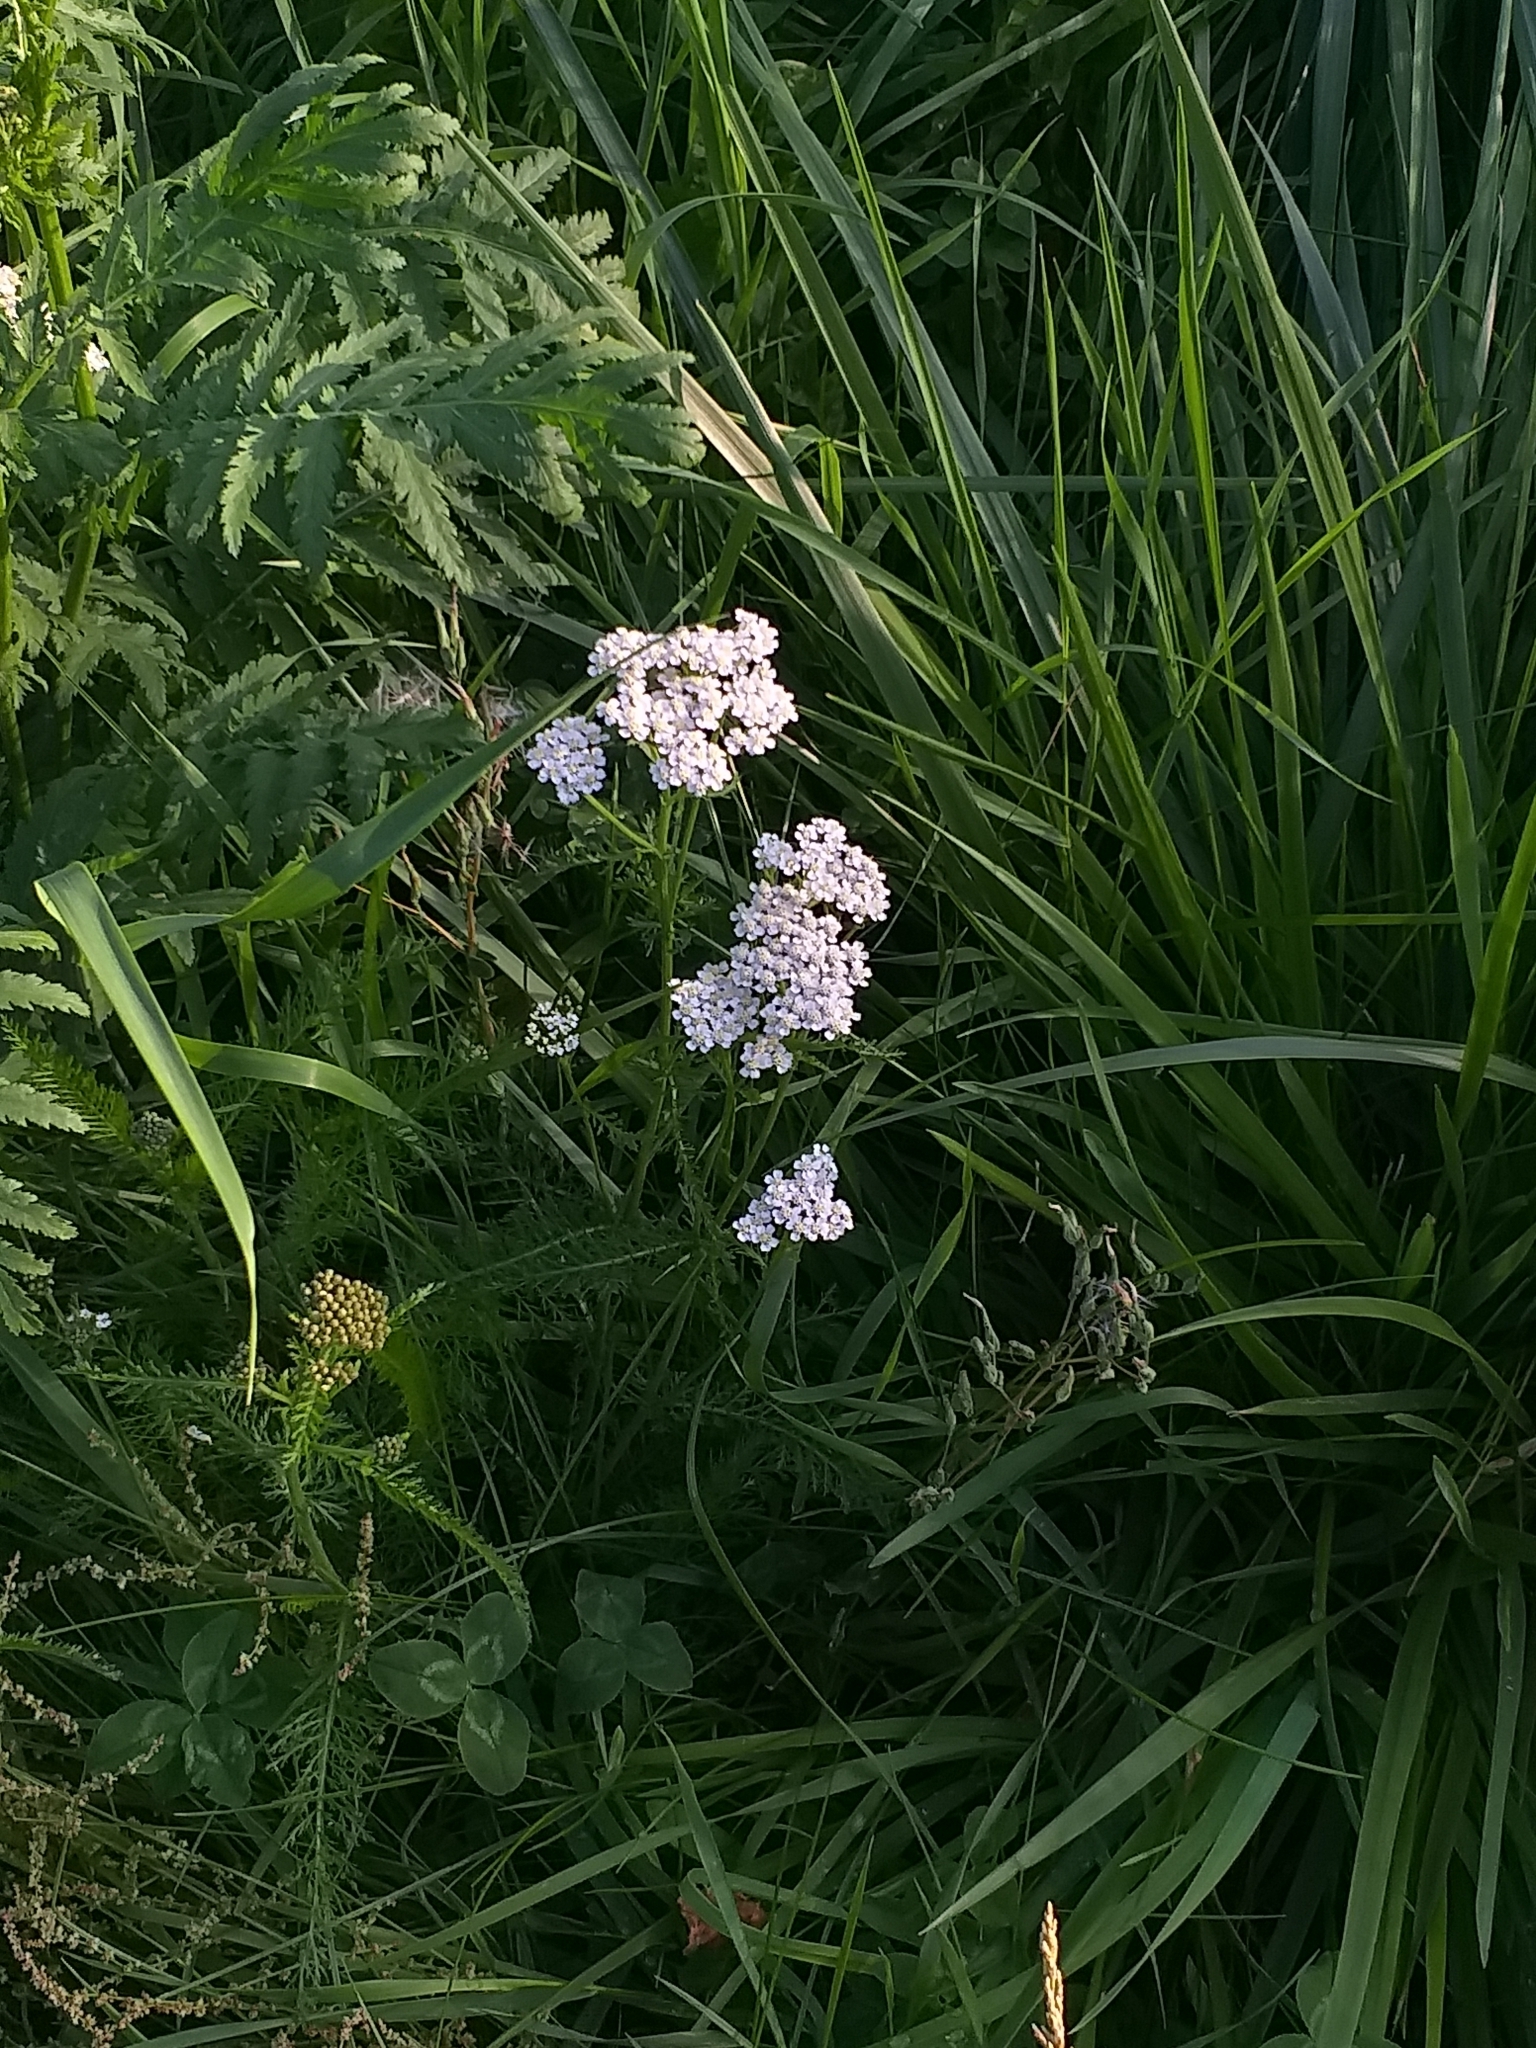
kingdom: Plantae
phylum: Tracheophyta
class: Magnoliopsida
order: Asterales
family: Asteraceae
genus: Achillea
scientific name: Achillea millefolium
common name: Yarrow
